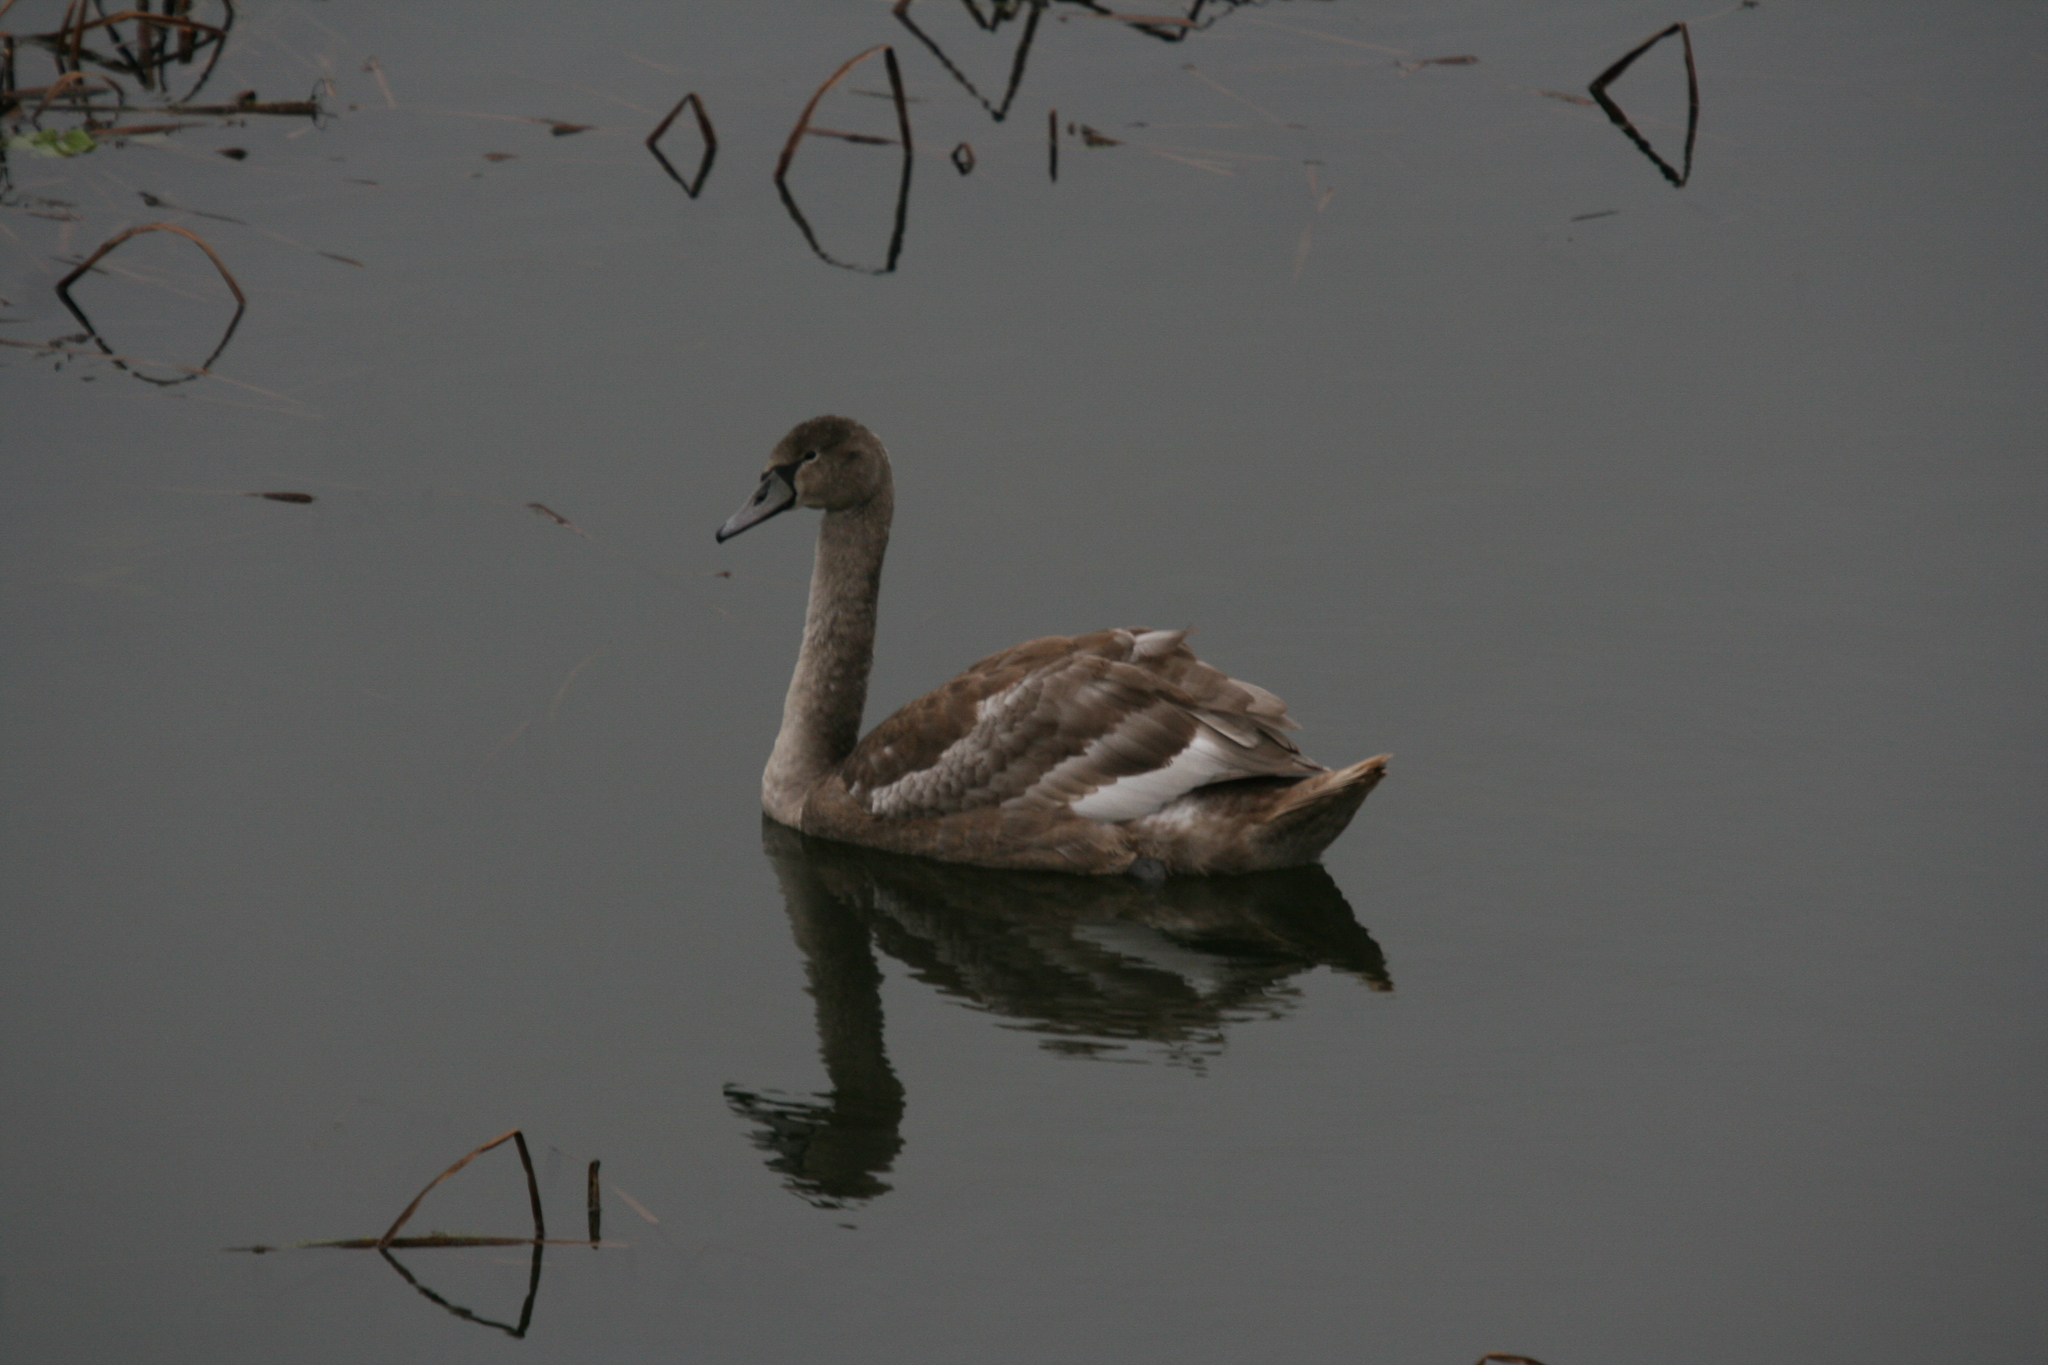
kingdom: Animalia
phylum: Chordata
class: Aves
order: Anseriformes
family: Anatidae
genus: Cygnus
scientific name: Cygnus olor
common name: Mute swan
